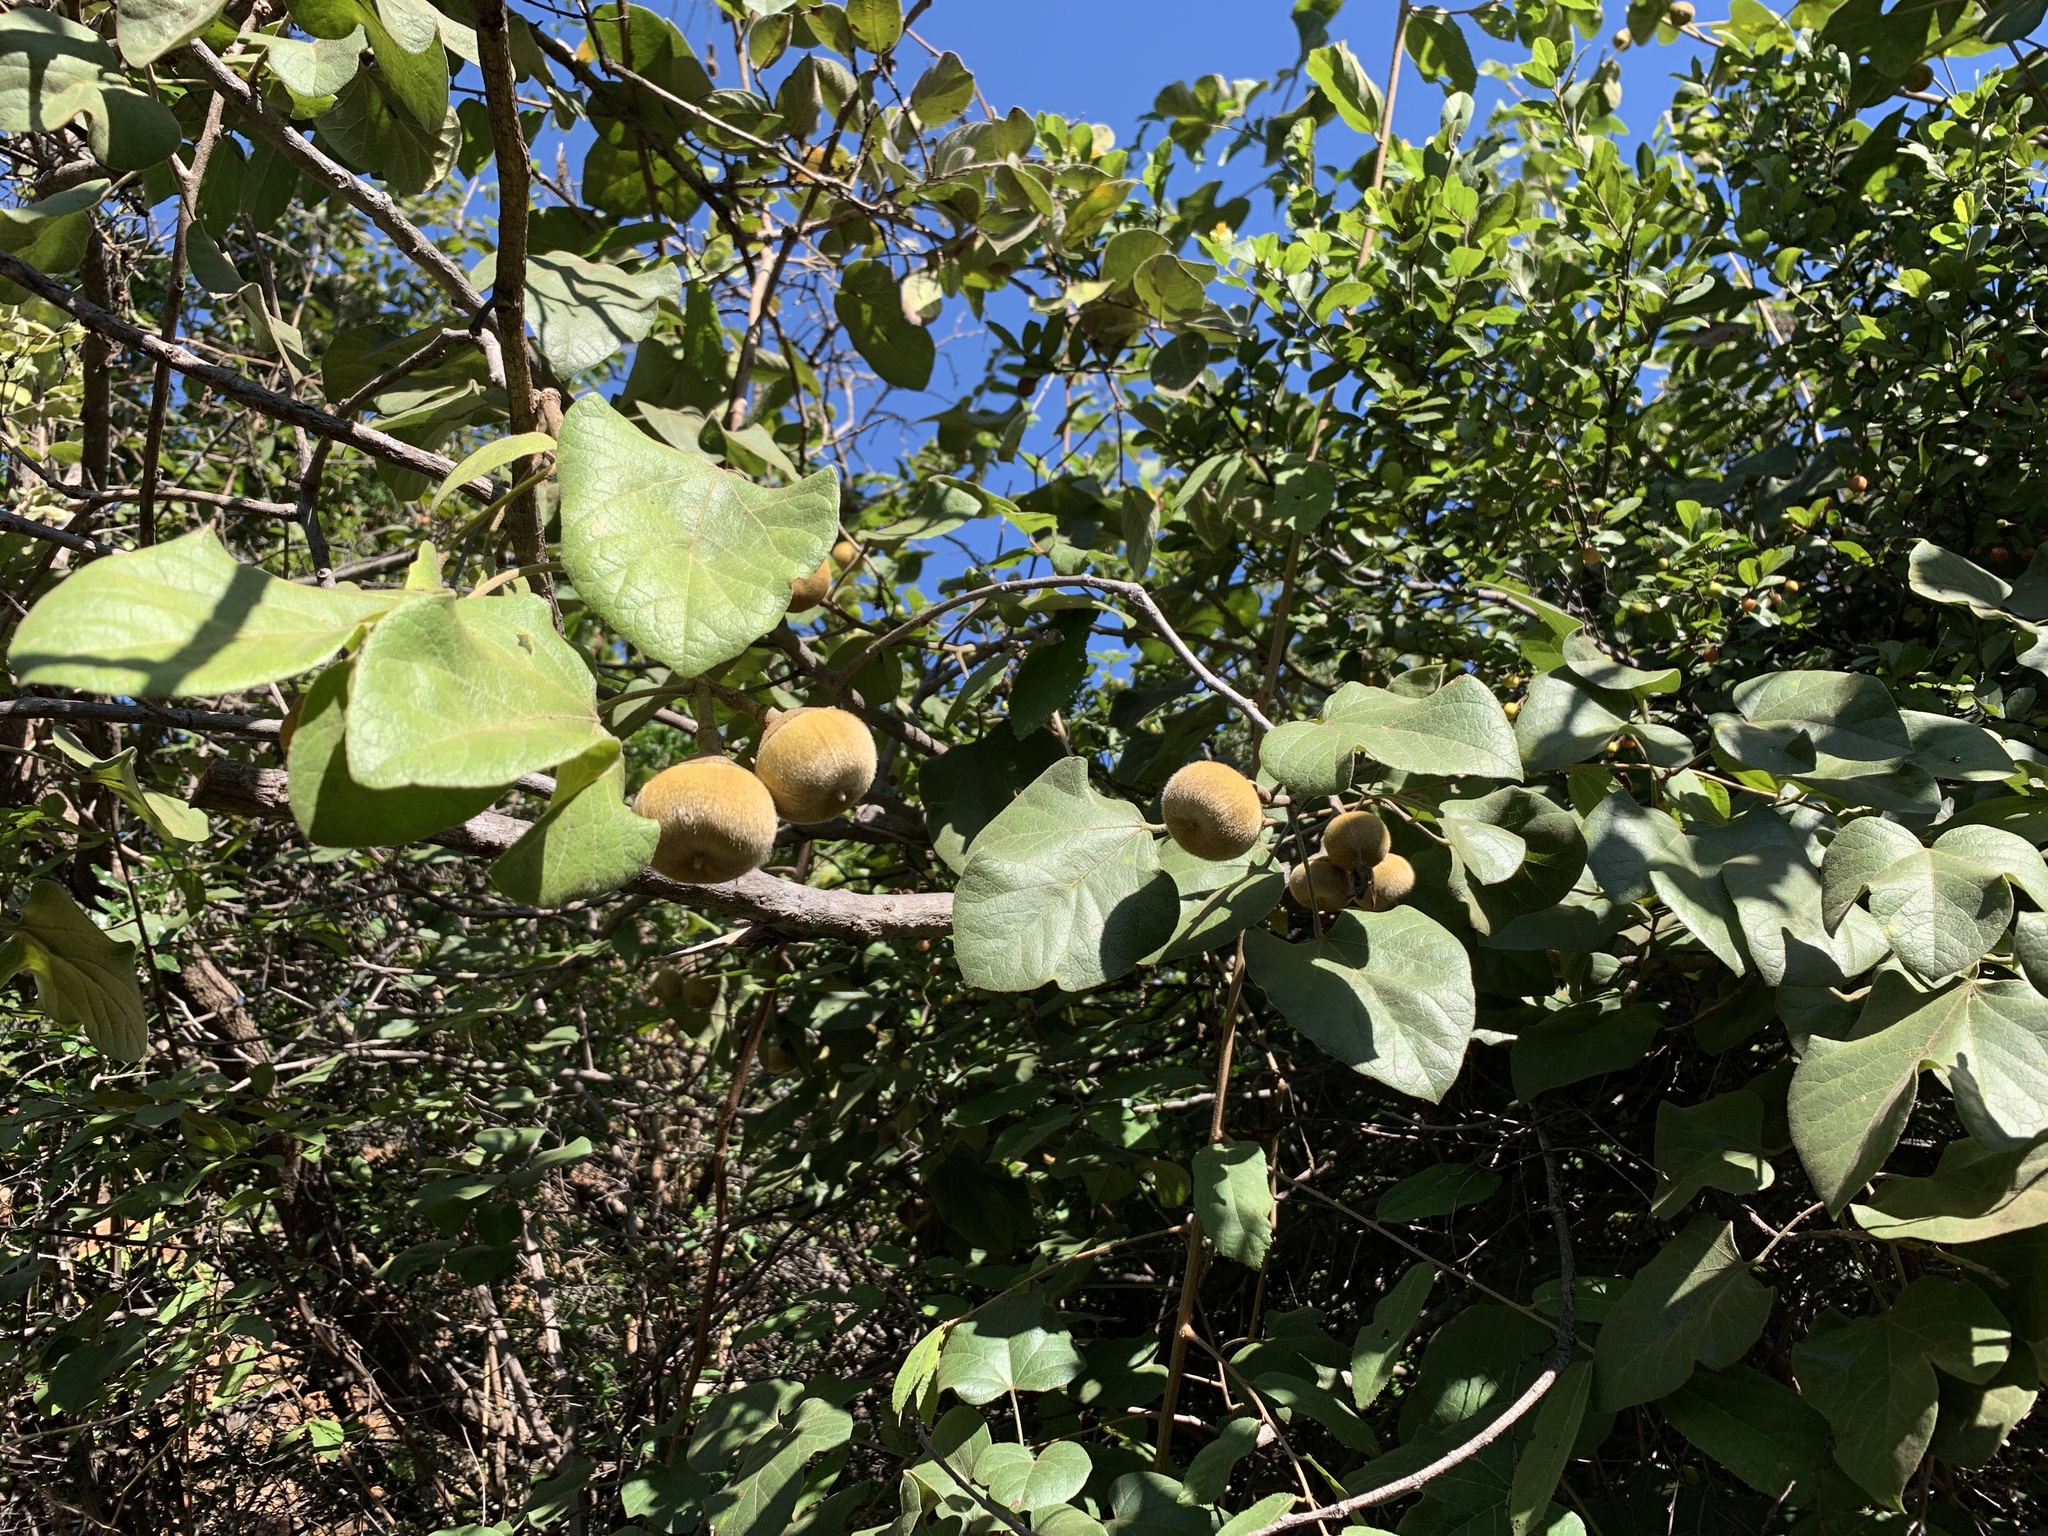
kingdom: Plantae
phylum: Tracheophyta
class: Magnoliopsida
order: Malvales
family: Malvaceae
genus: Thespesia
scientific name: Thespesia garckeana
